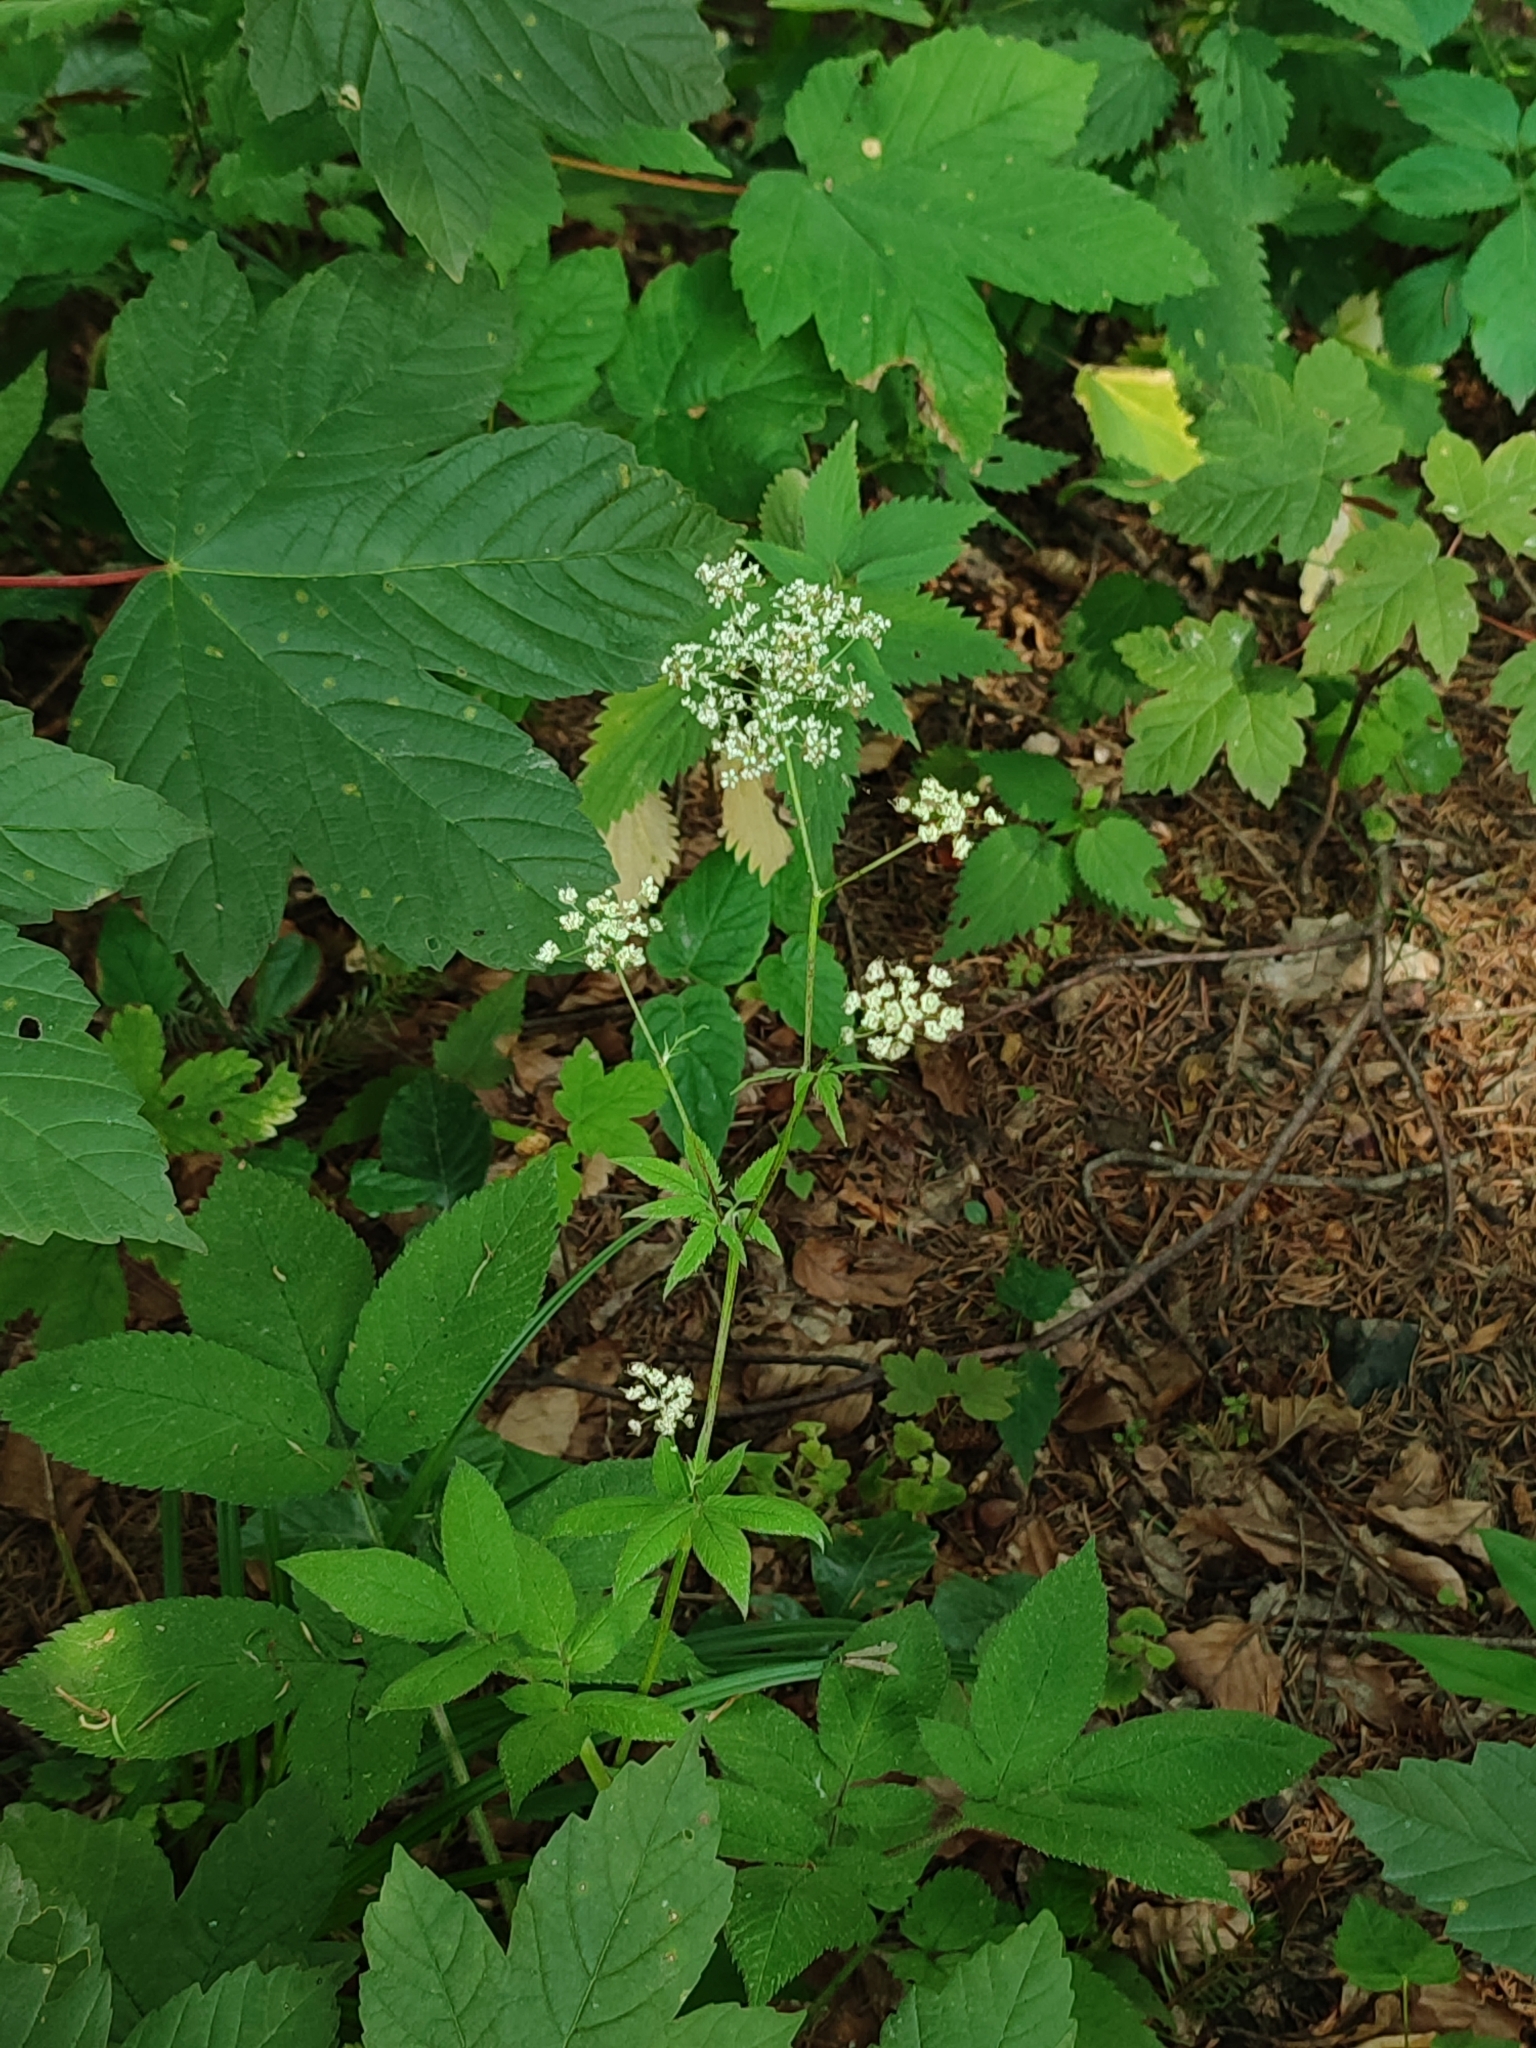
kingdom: Plantae
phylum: Tracheophyta
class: Magnoliopsida
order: Apiales
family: Apiaceae
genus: Chaerophyllum
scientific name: Chaerophyllum aromaticum
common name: Broadleaf chervil
